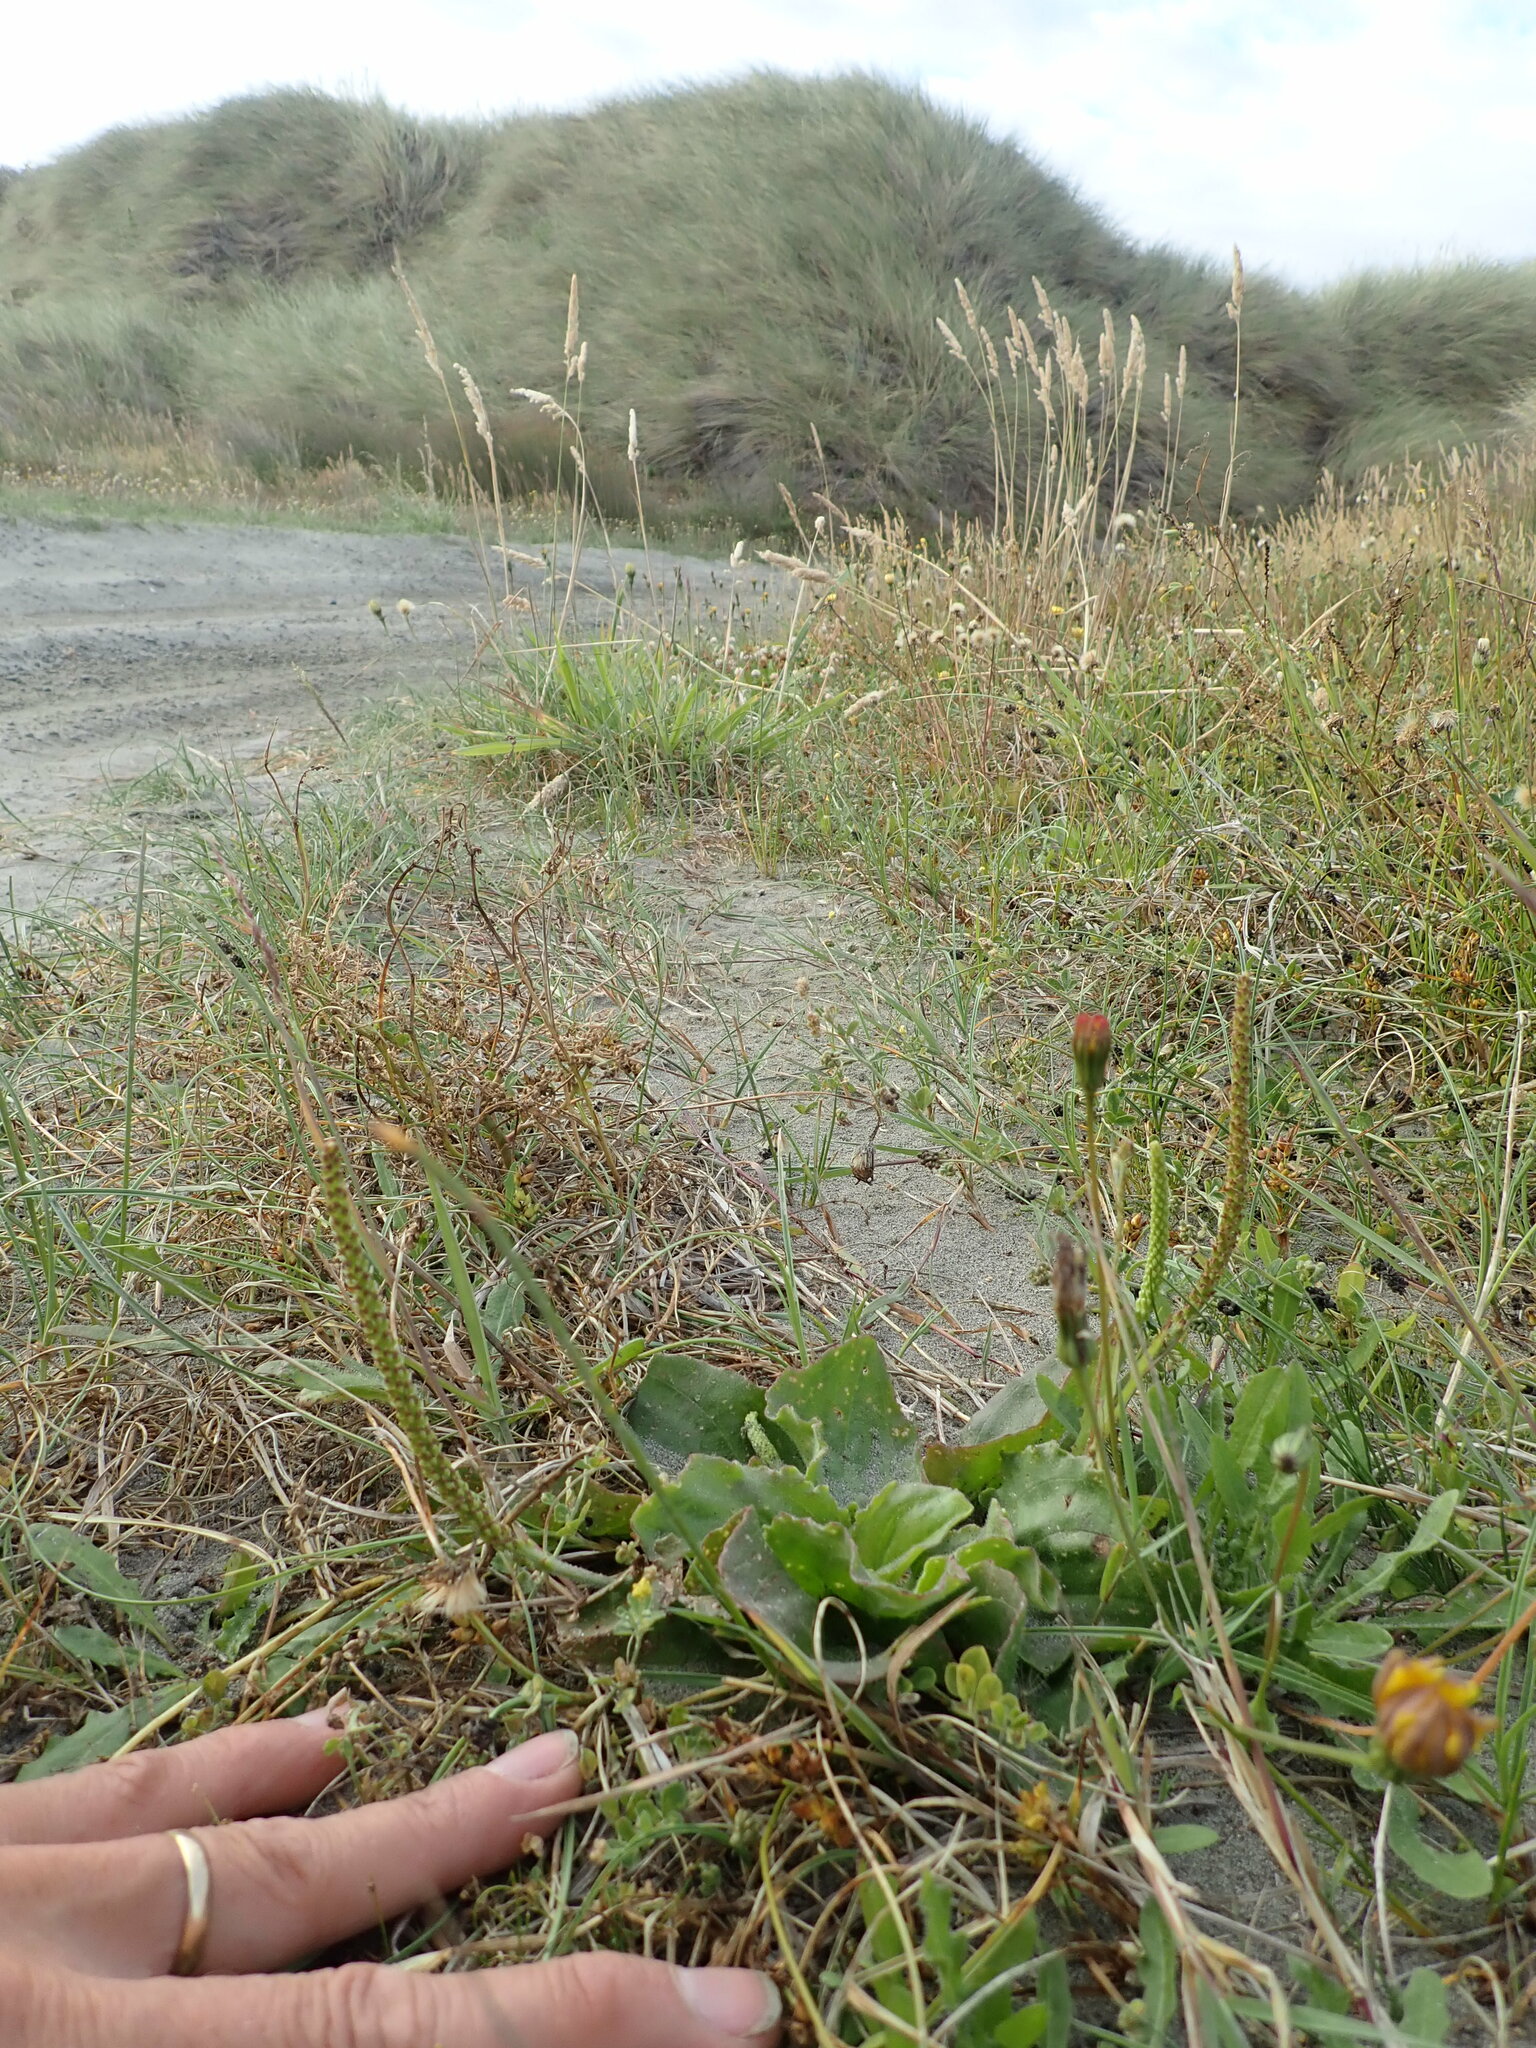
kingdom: Plantae
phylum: Tracheophyta
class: Magnoliopsida
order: Lamiales
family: Plantaginaceae
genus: Plantago
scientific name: Plantago major
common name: Common plantain
